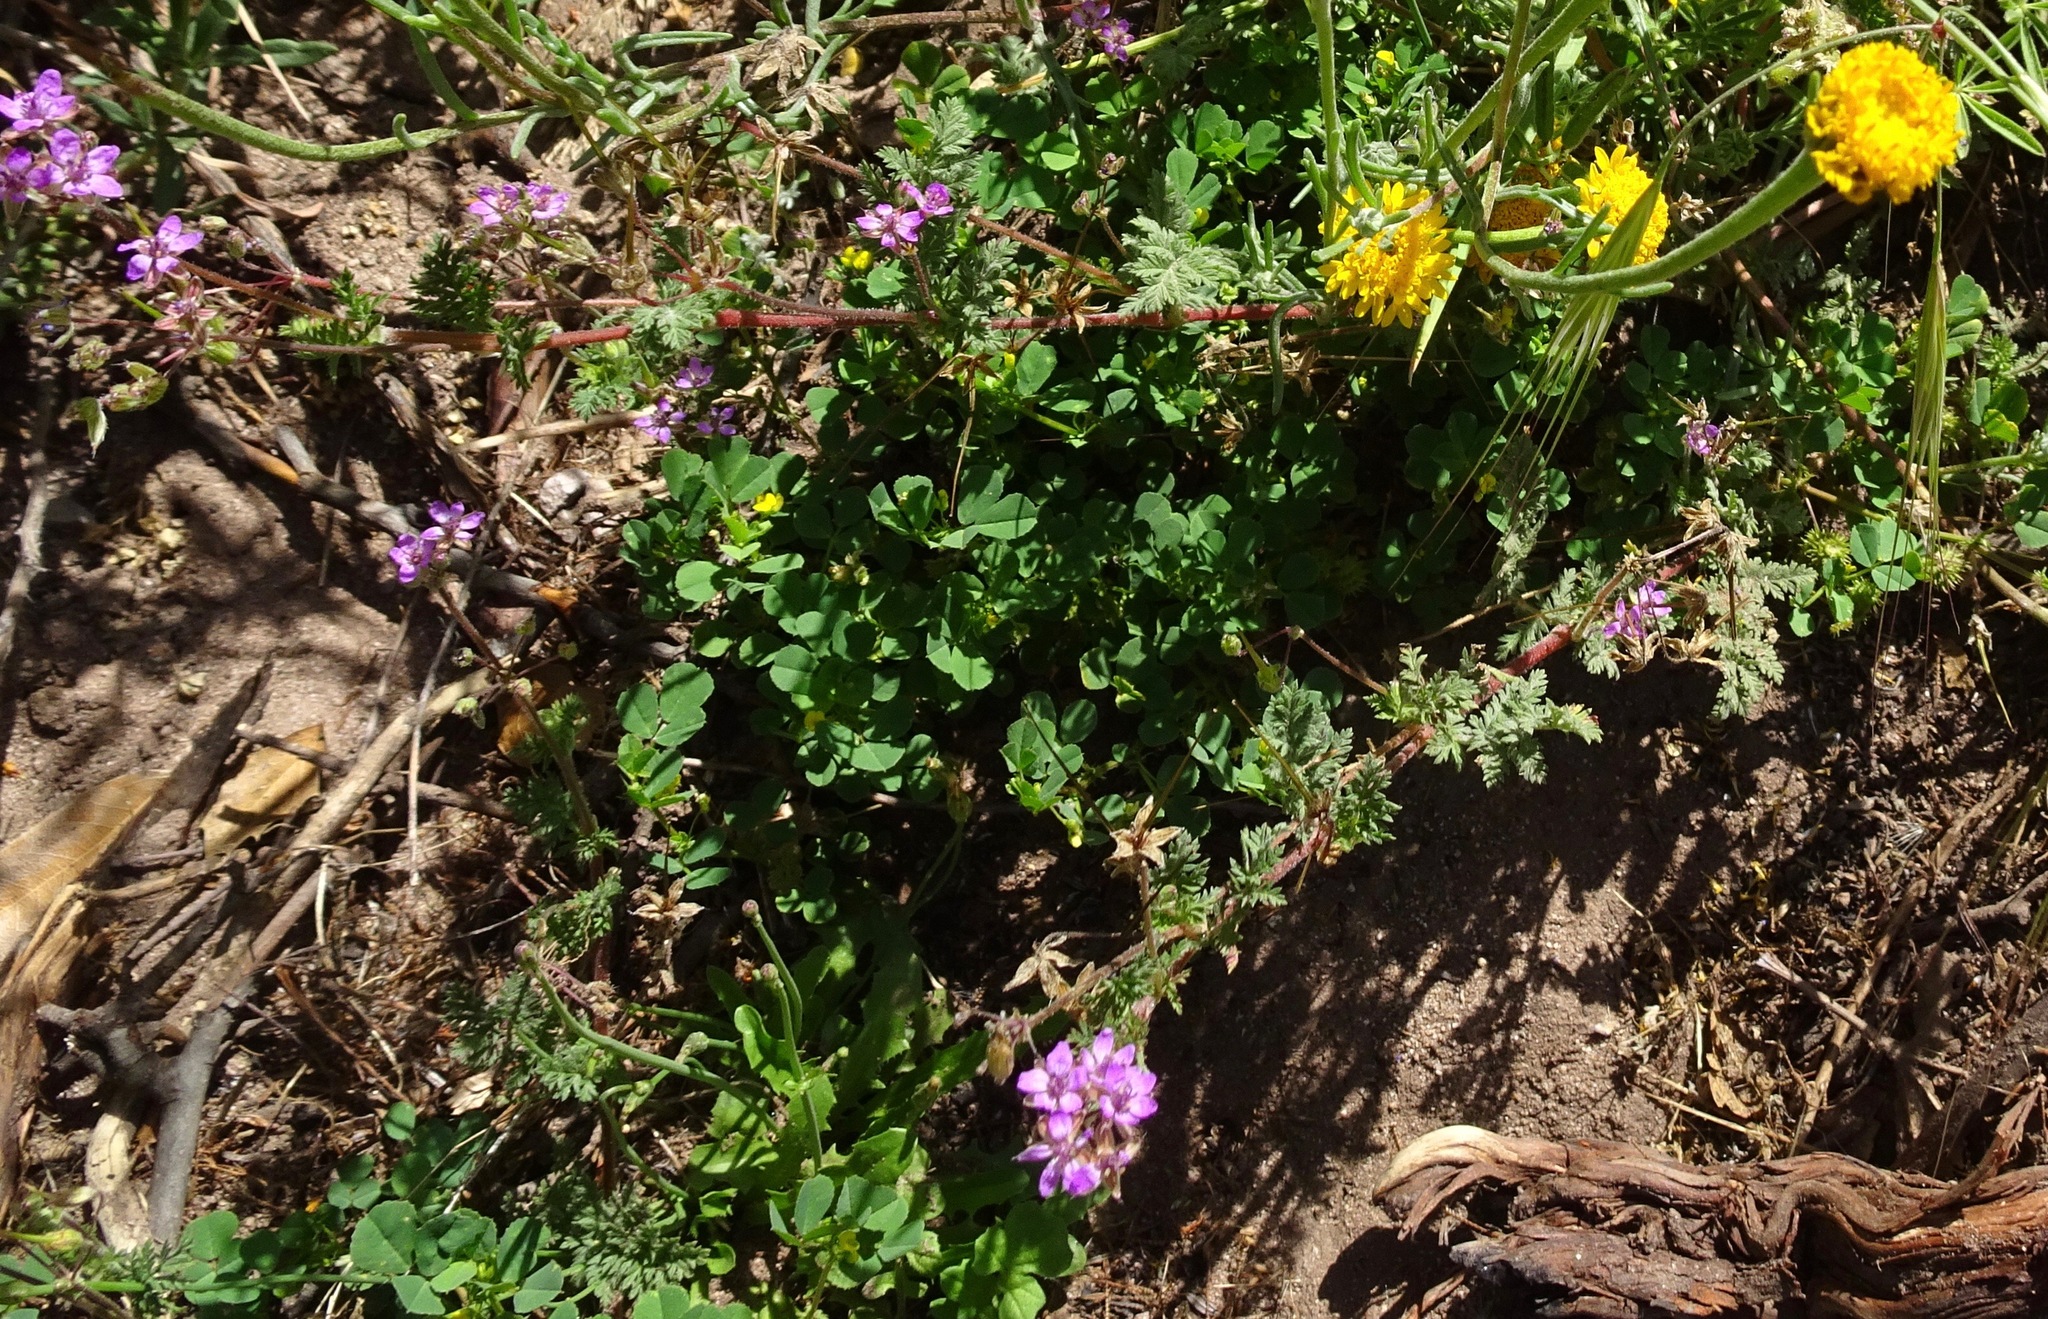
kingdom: Plantae
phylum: Tracheophyta
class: Magnoliopsida
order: Geraniales
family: Geraniaceae
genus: Erodium
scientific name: Erodium cicutarium
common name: Common stork's-bill
